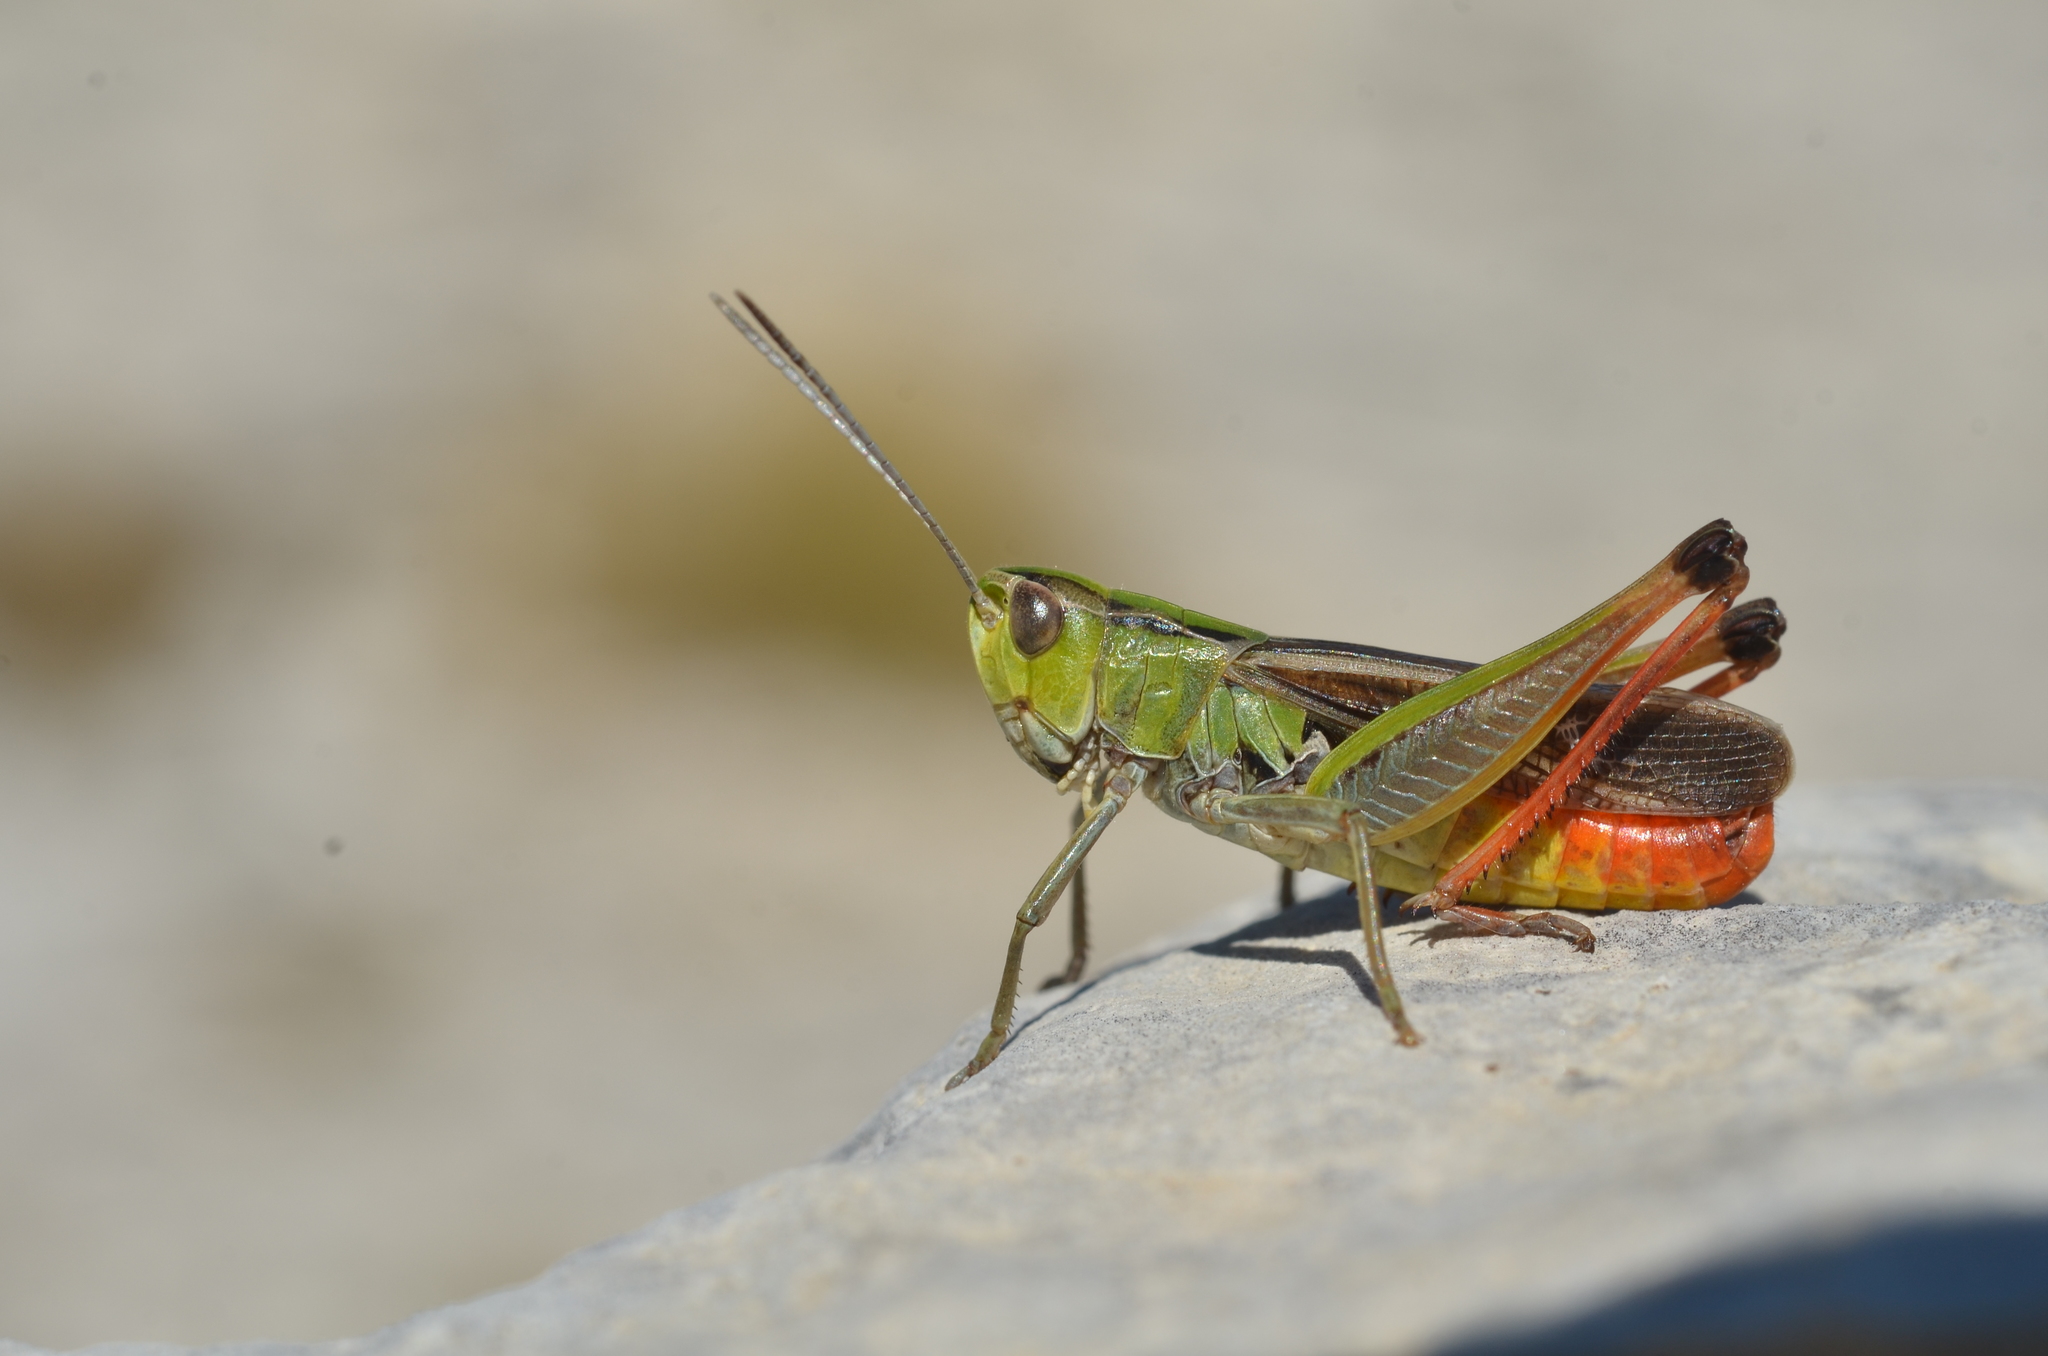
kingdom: Animalia
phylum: Arthropoda
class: Insecta
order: Orthoptera
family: Acrididae
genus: Stenobothrus
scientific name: Stenobothrus lineatus
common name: Stripe-winged grasshopper
